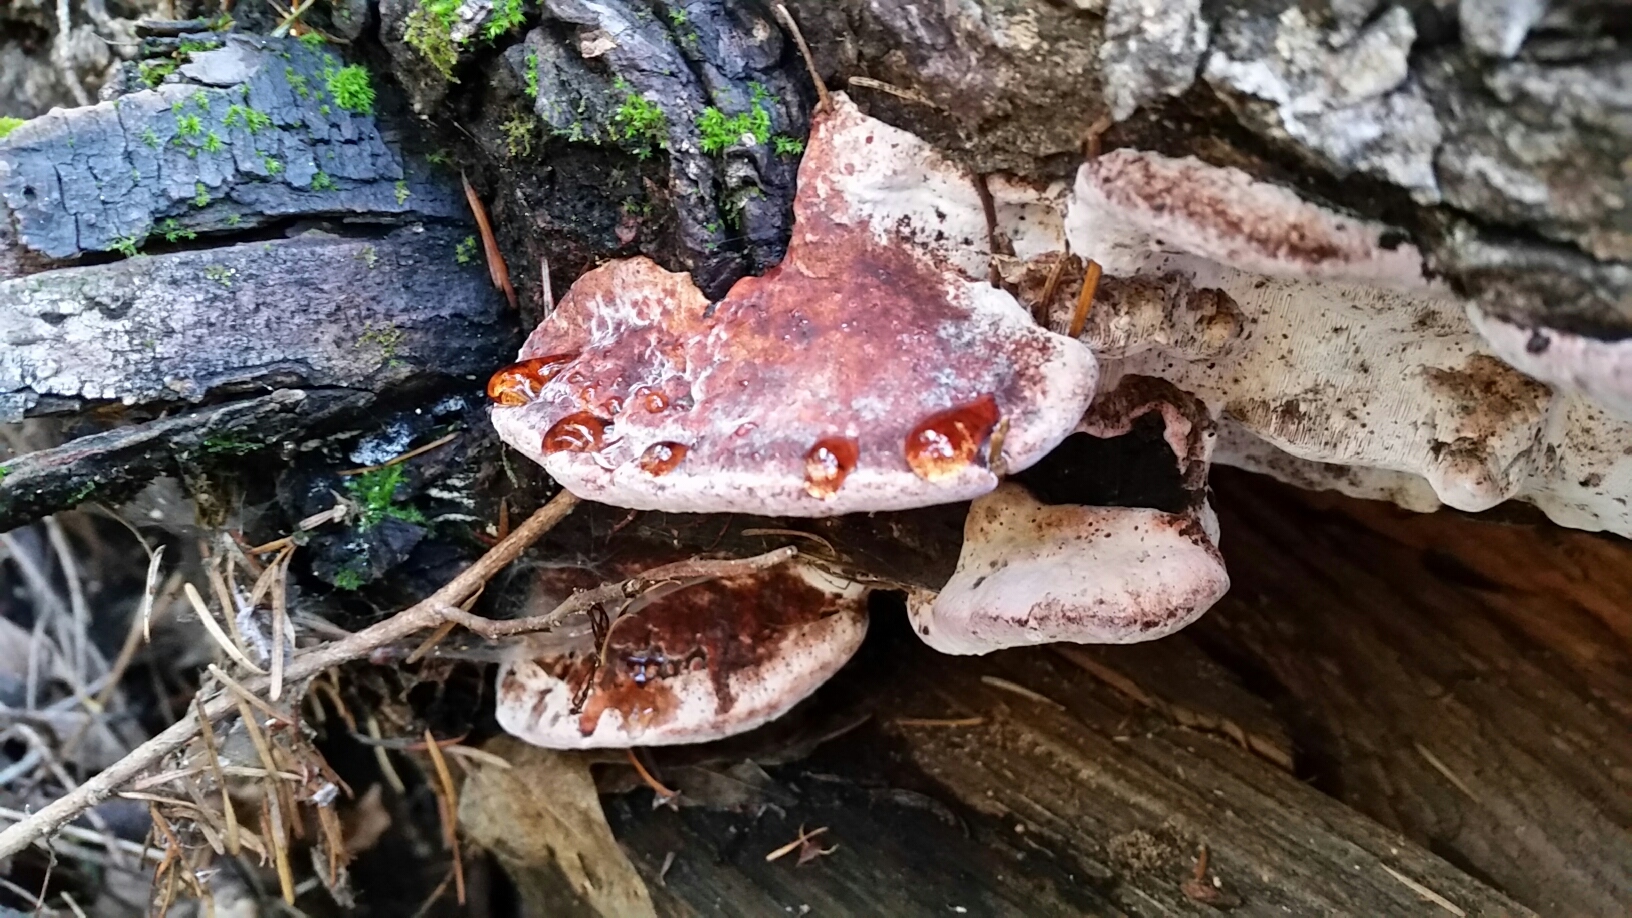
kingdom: Fungi
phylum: Basidiomycota
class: Agaricomycetes
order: Polyporales
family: Fomitopsidaceae
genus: Rhodofomes
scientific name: Rhodofomes cajanderi
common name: Rosy conk
